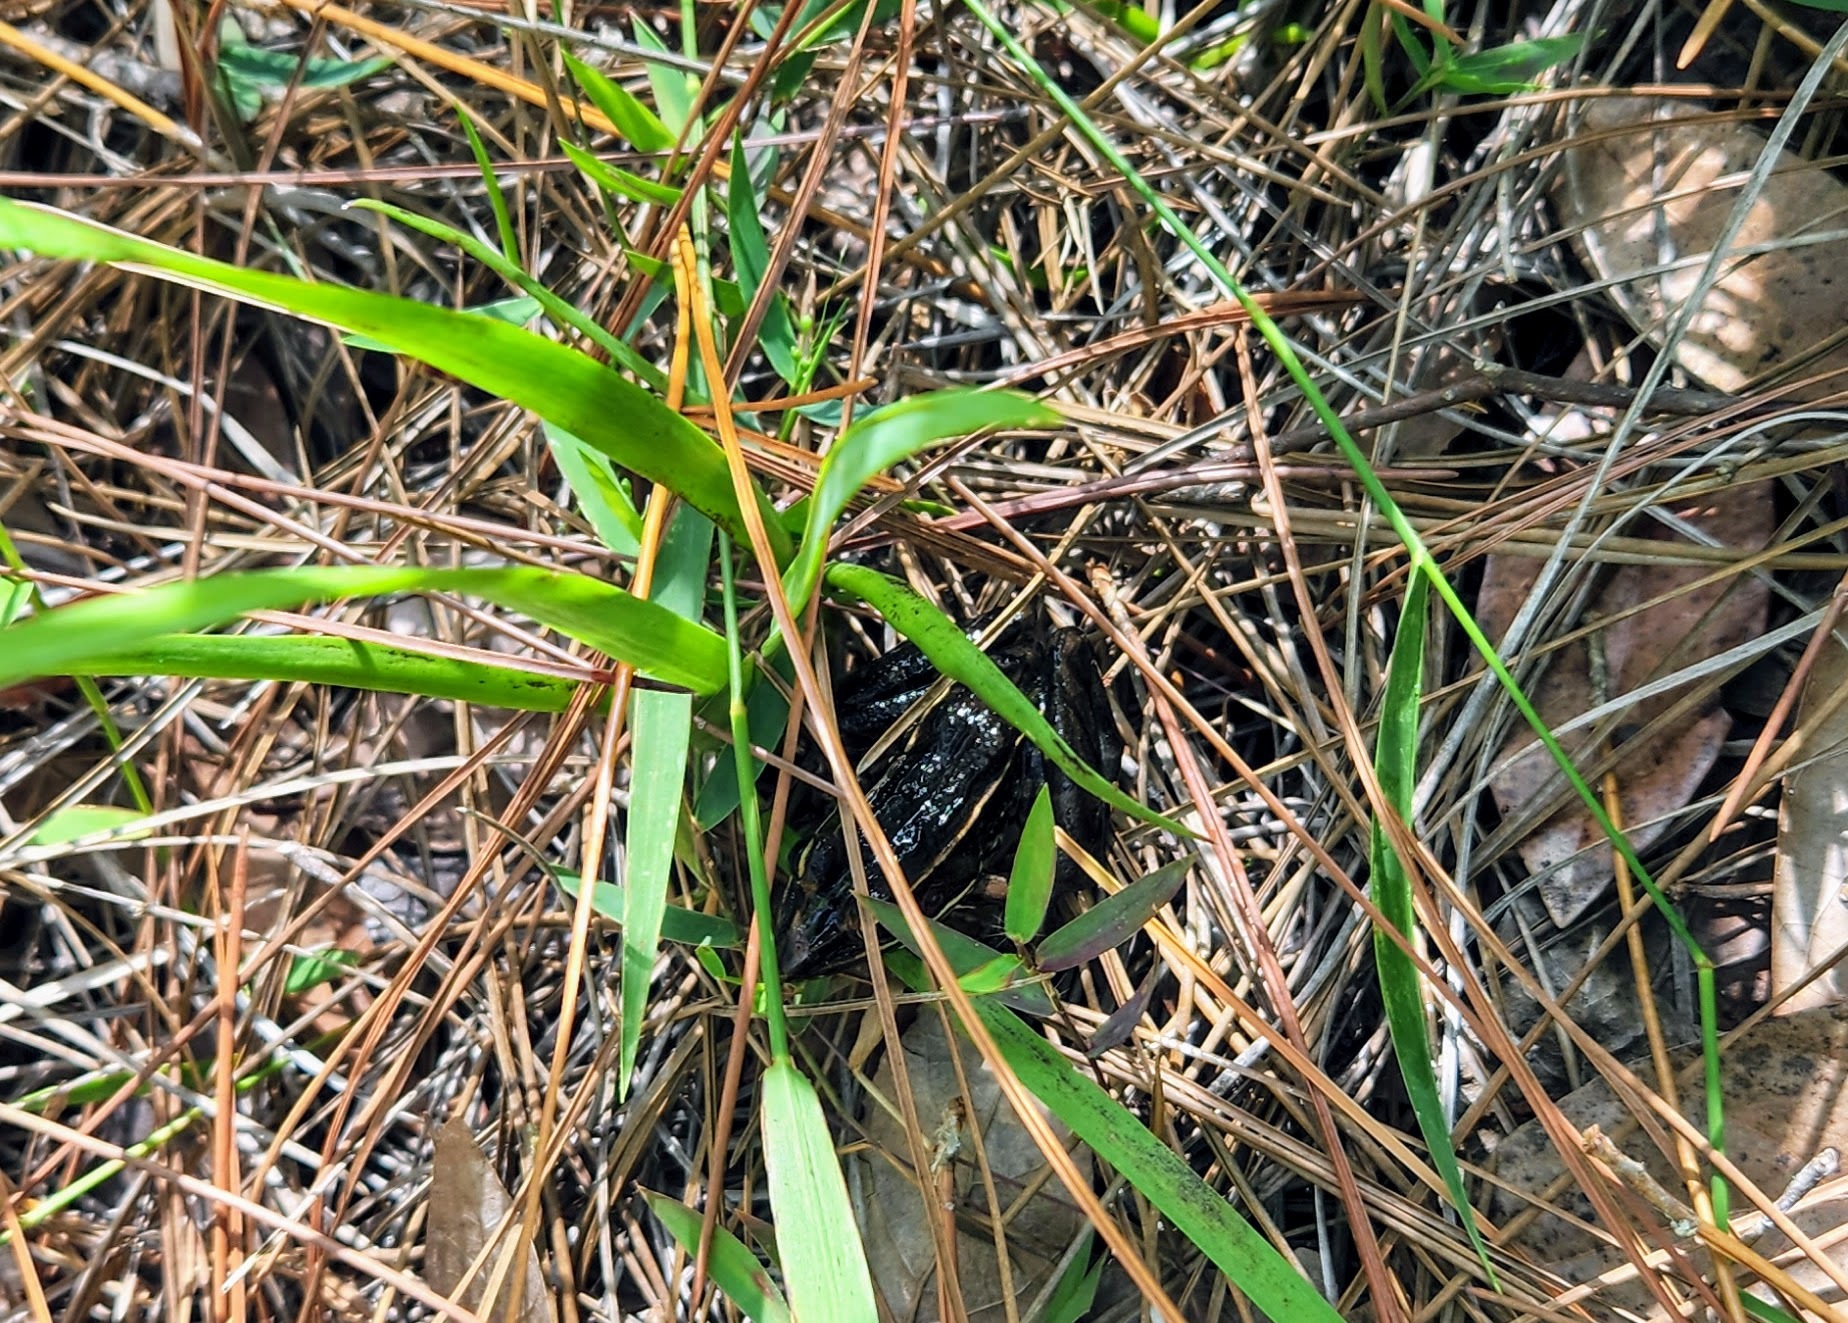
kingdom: Animalia
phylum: Chordata
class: Amphibia
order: Anura
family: Ranidae
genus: Lithobates
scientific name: Lithobates sphenocephalus
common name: Southern leopard frog
